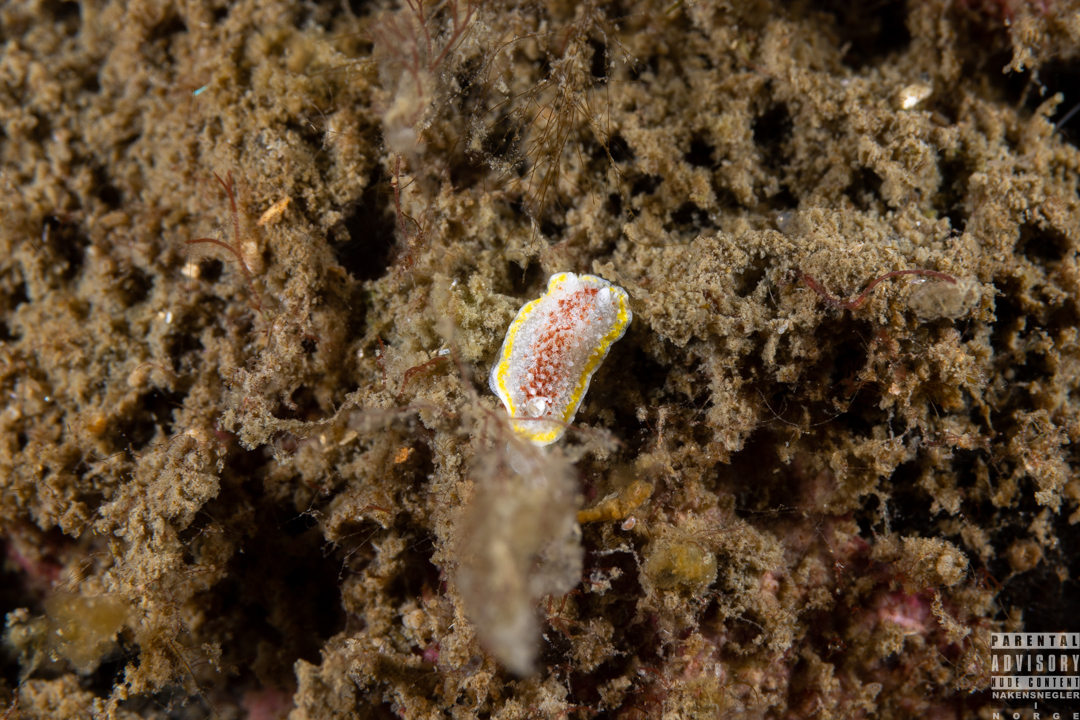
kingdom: Animalia
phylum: Mollusca
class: Gastropoda
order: Nudibranchia
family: Calycidorididae
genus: Diaphorodoris
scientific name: Diaphorodoris luteocincta
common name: Fried egg nudibranch
